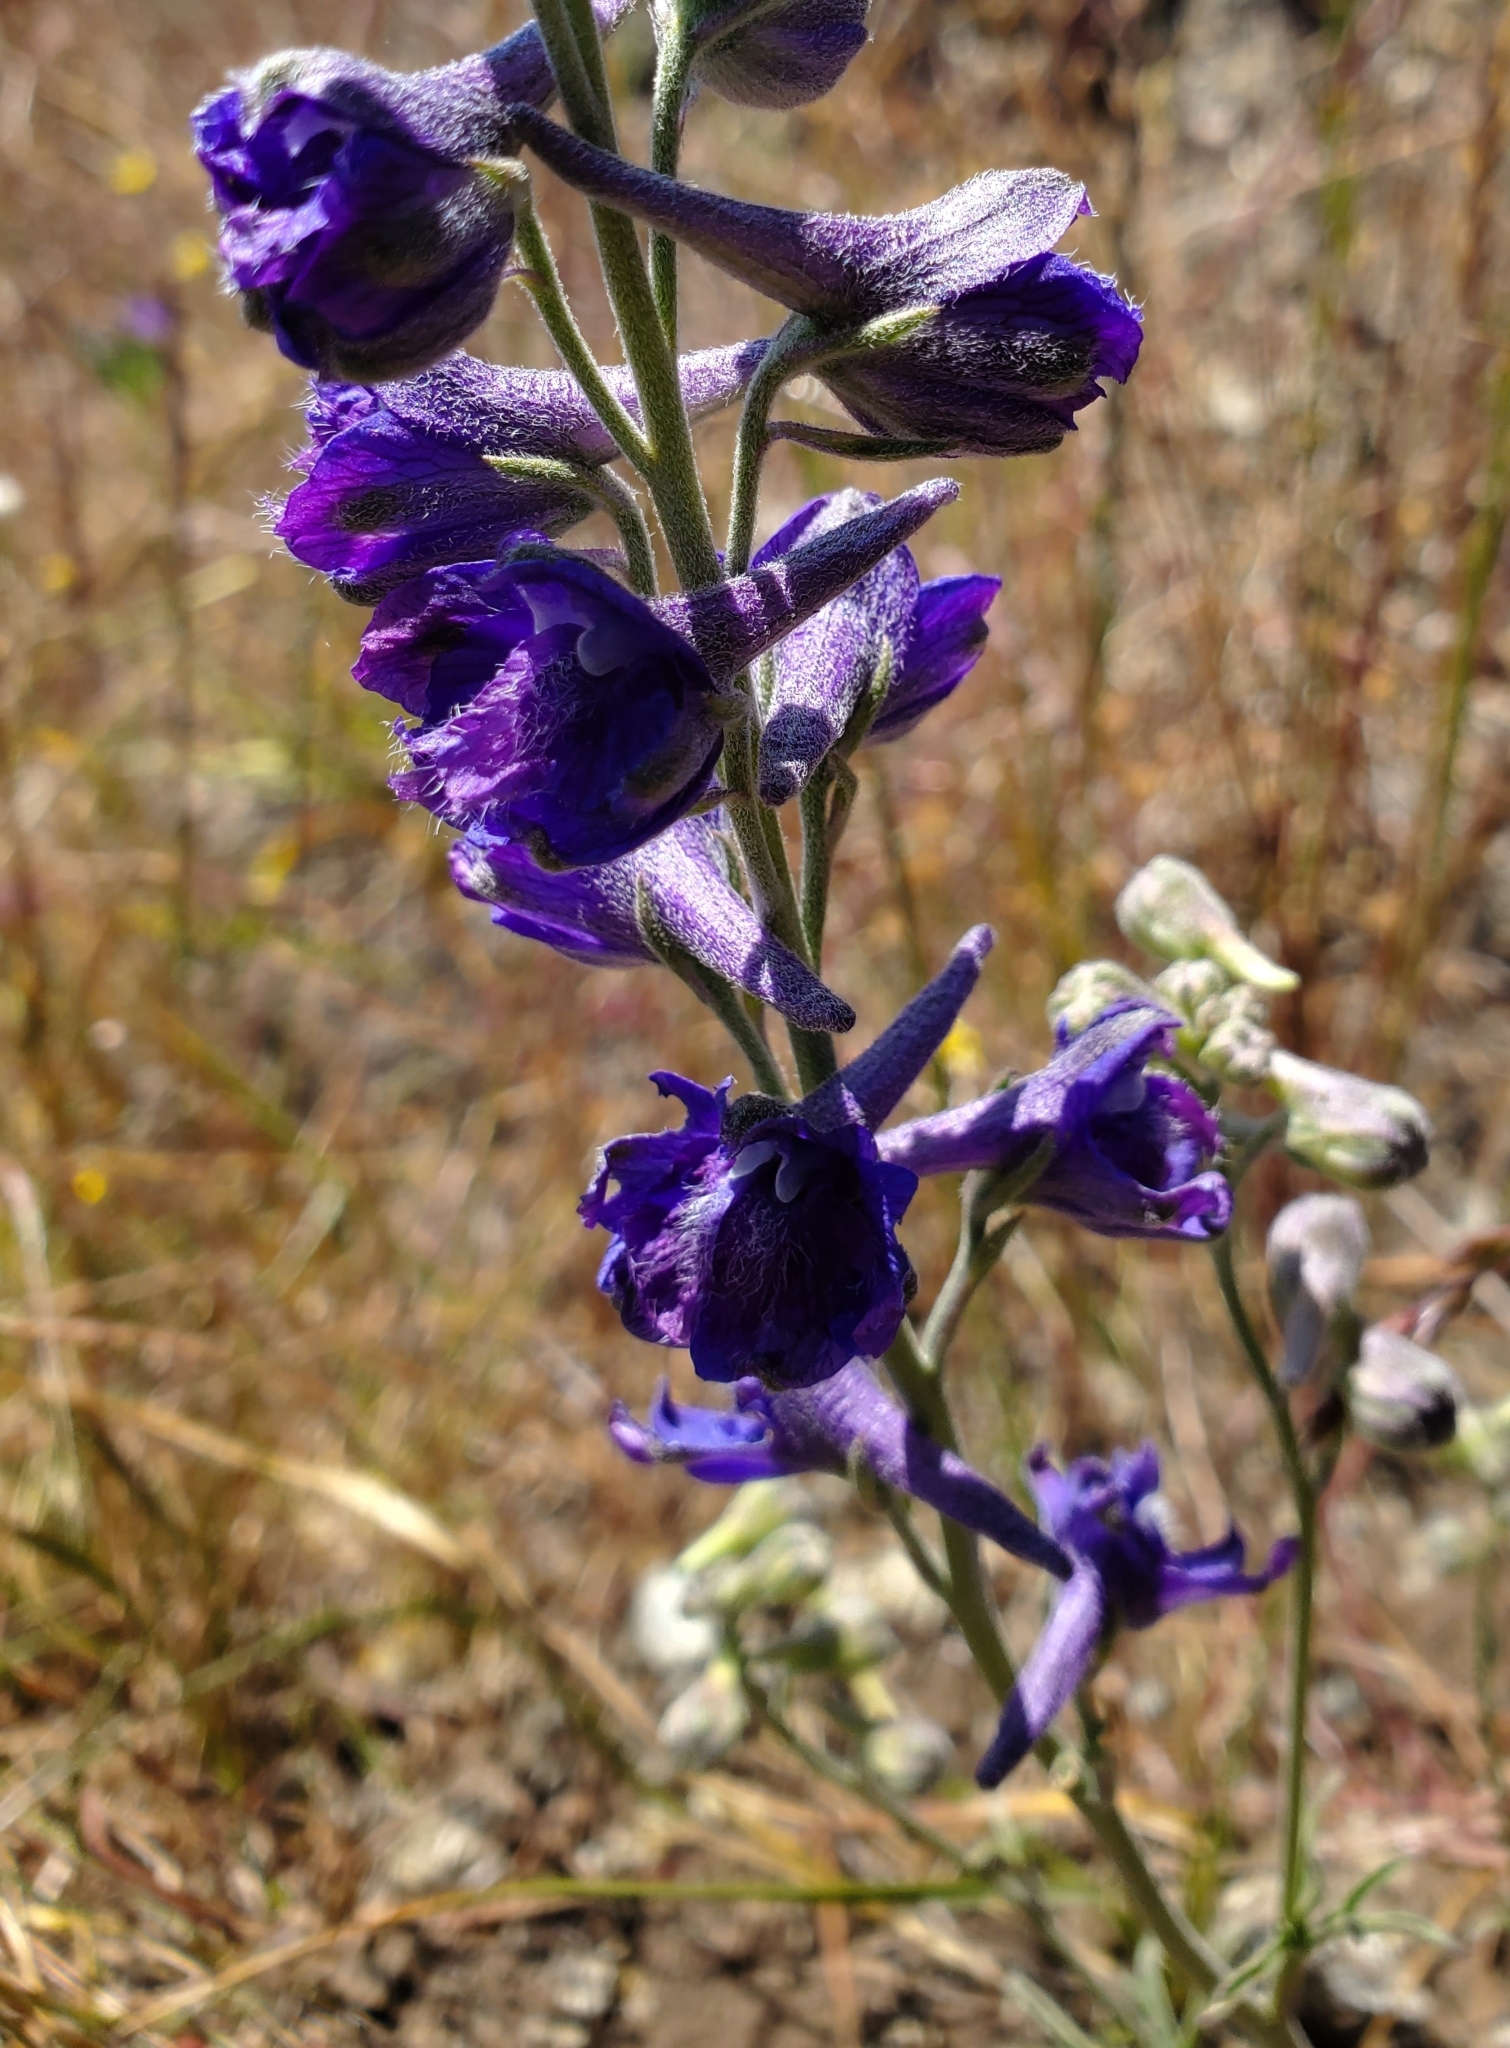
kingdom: Plantae
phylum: Tracheophyta
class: Magnoliopsida
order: Ranunculales
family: Ranunculaceae
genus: Delphinium
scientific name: Delphinium hesperium
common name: Western larkspur
